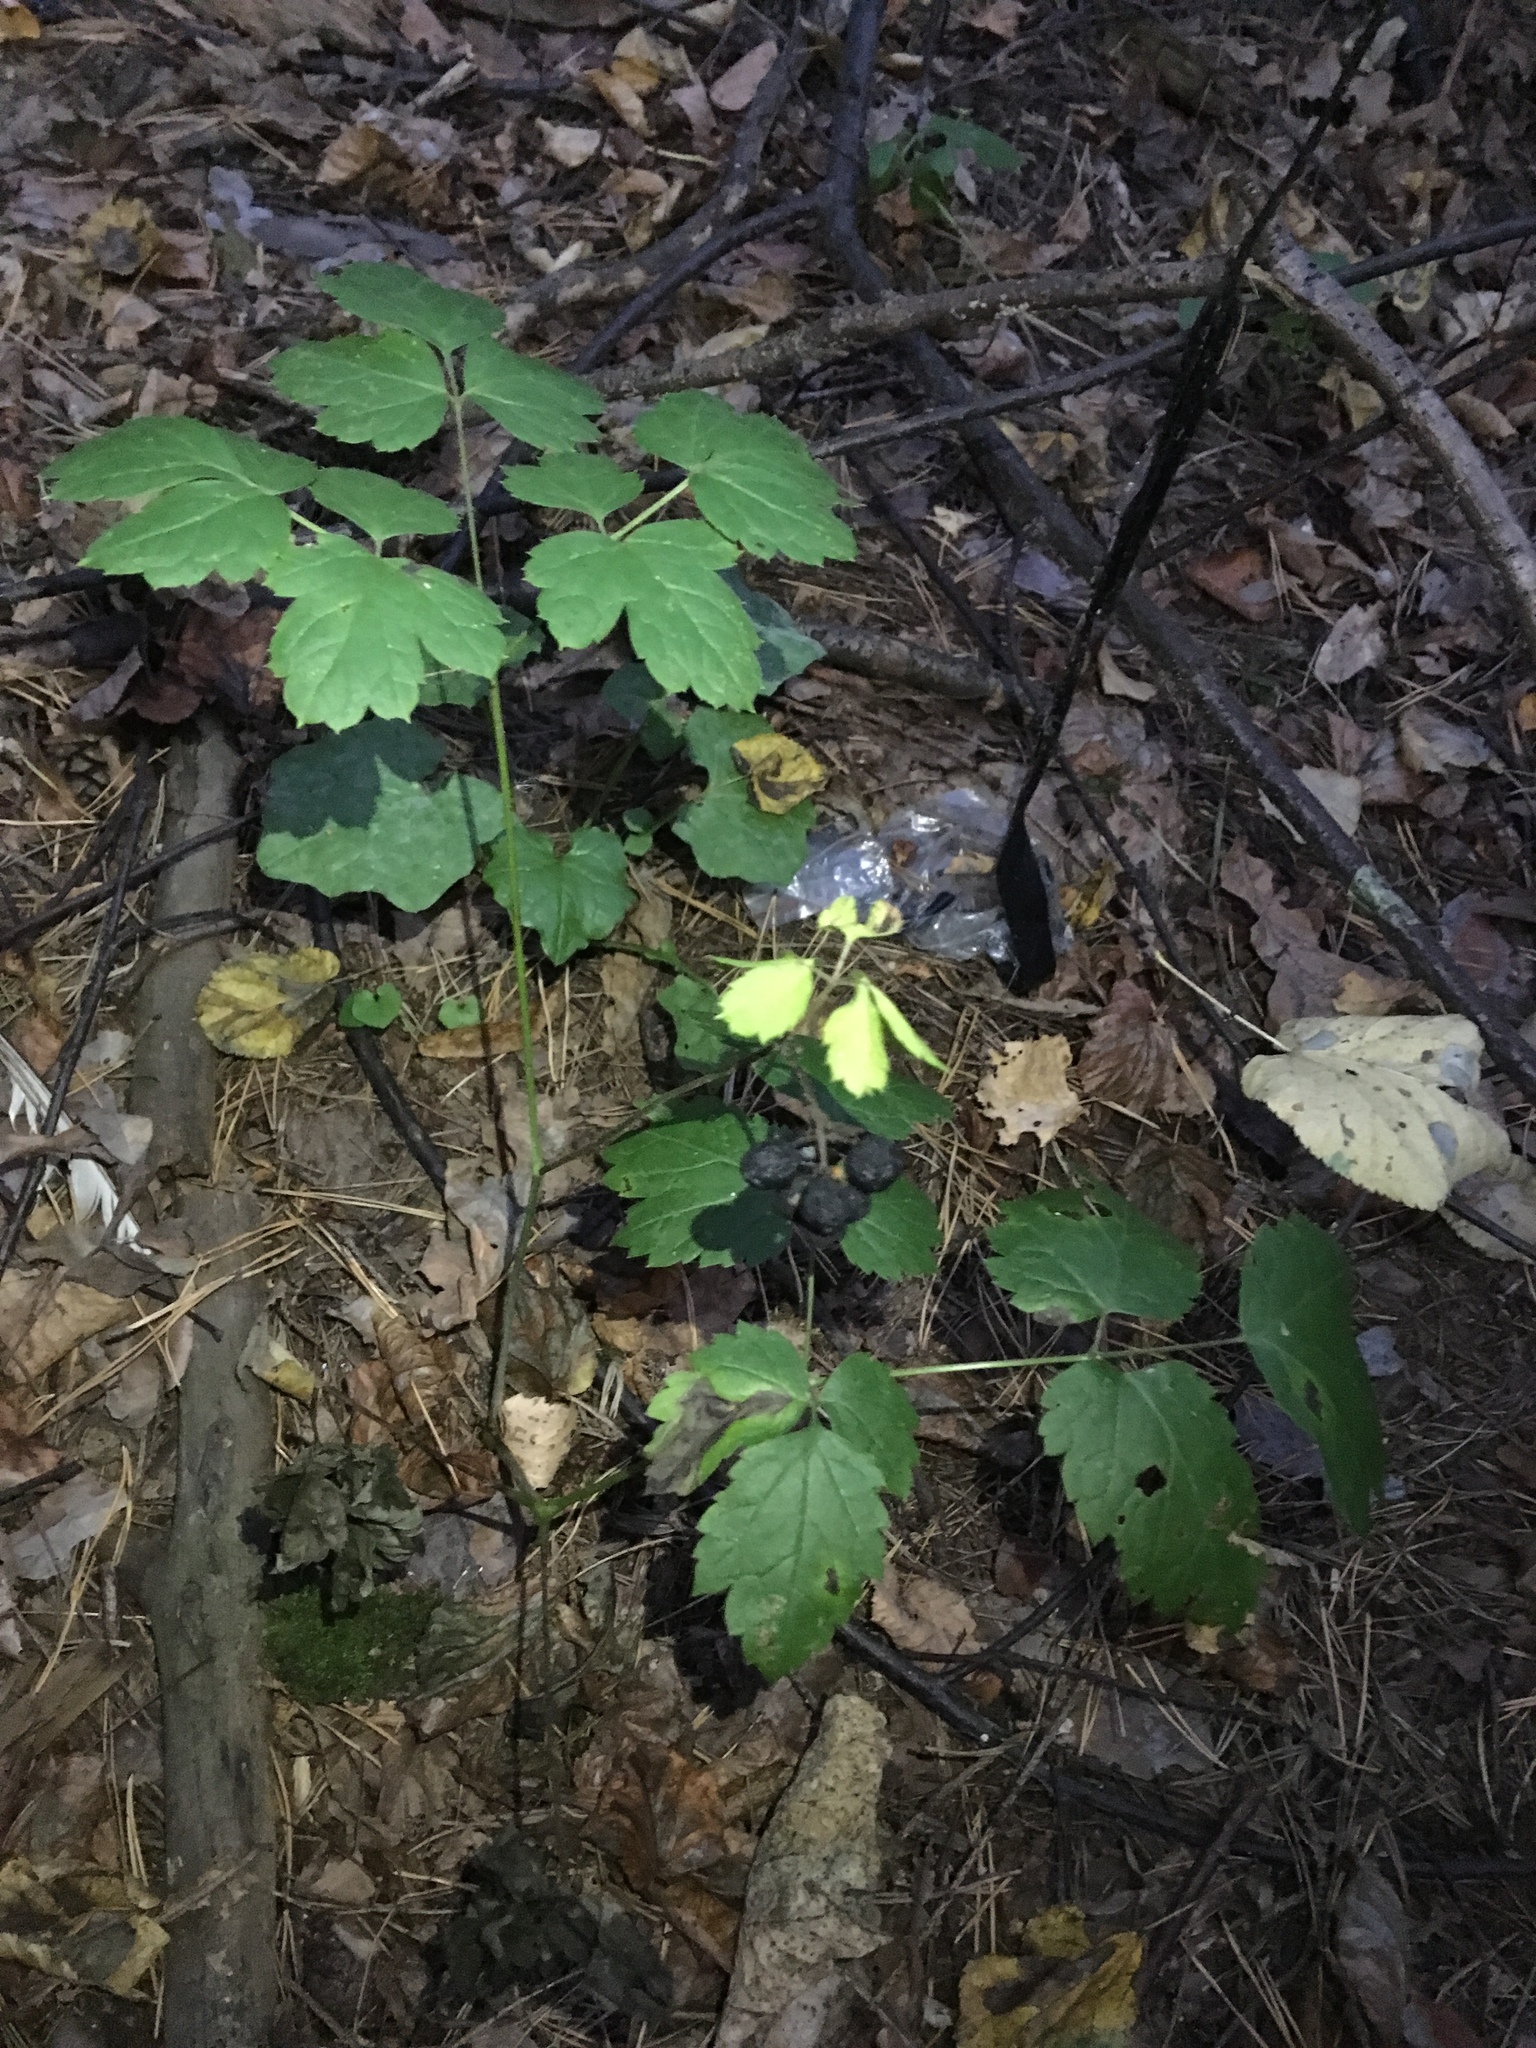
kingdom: Plantae
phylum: Tracheophyta
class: Magnoliopsida
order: Ranunculales
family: Ranunculaceae
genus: Actaea
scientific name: Actaea spicata
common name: Baneberry
